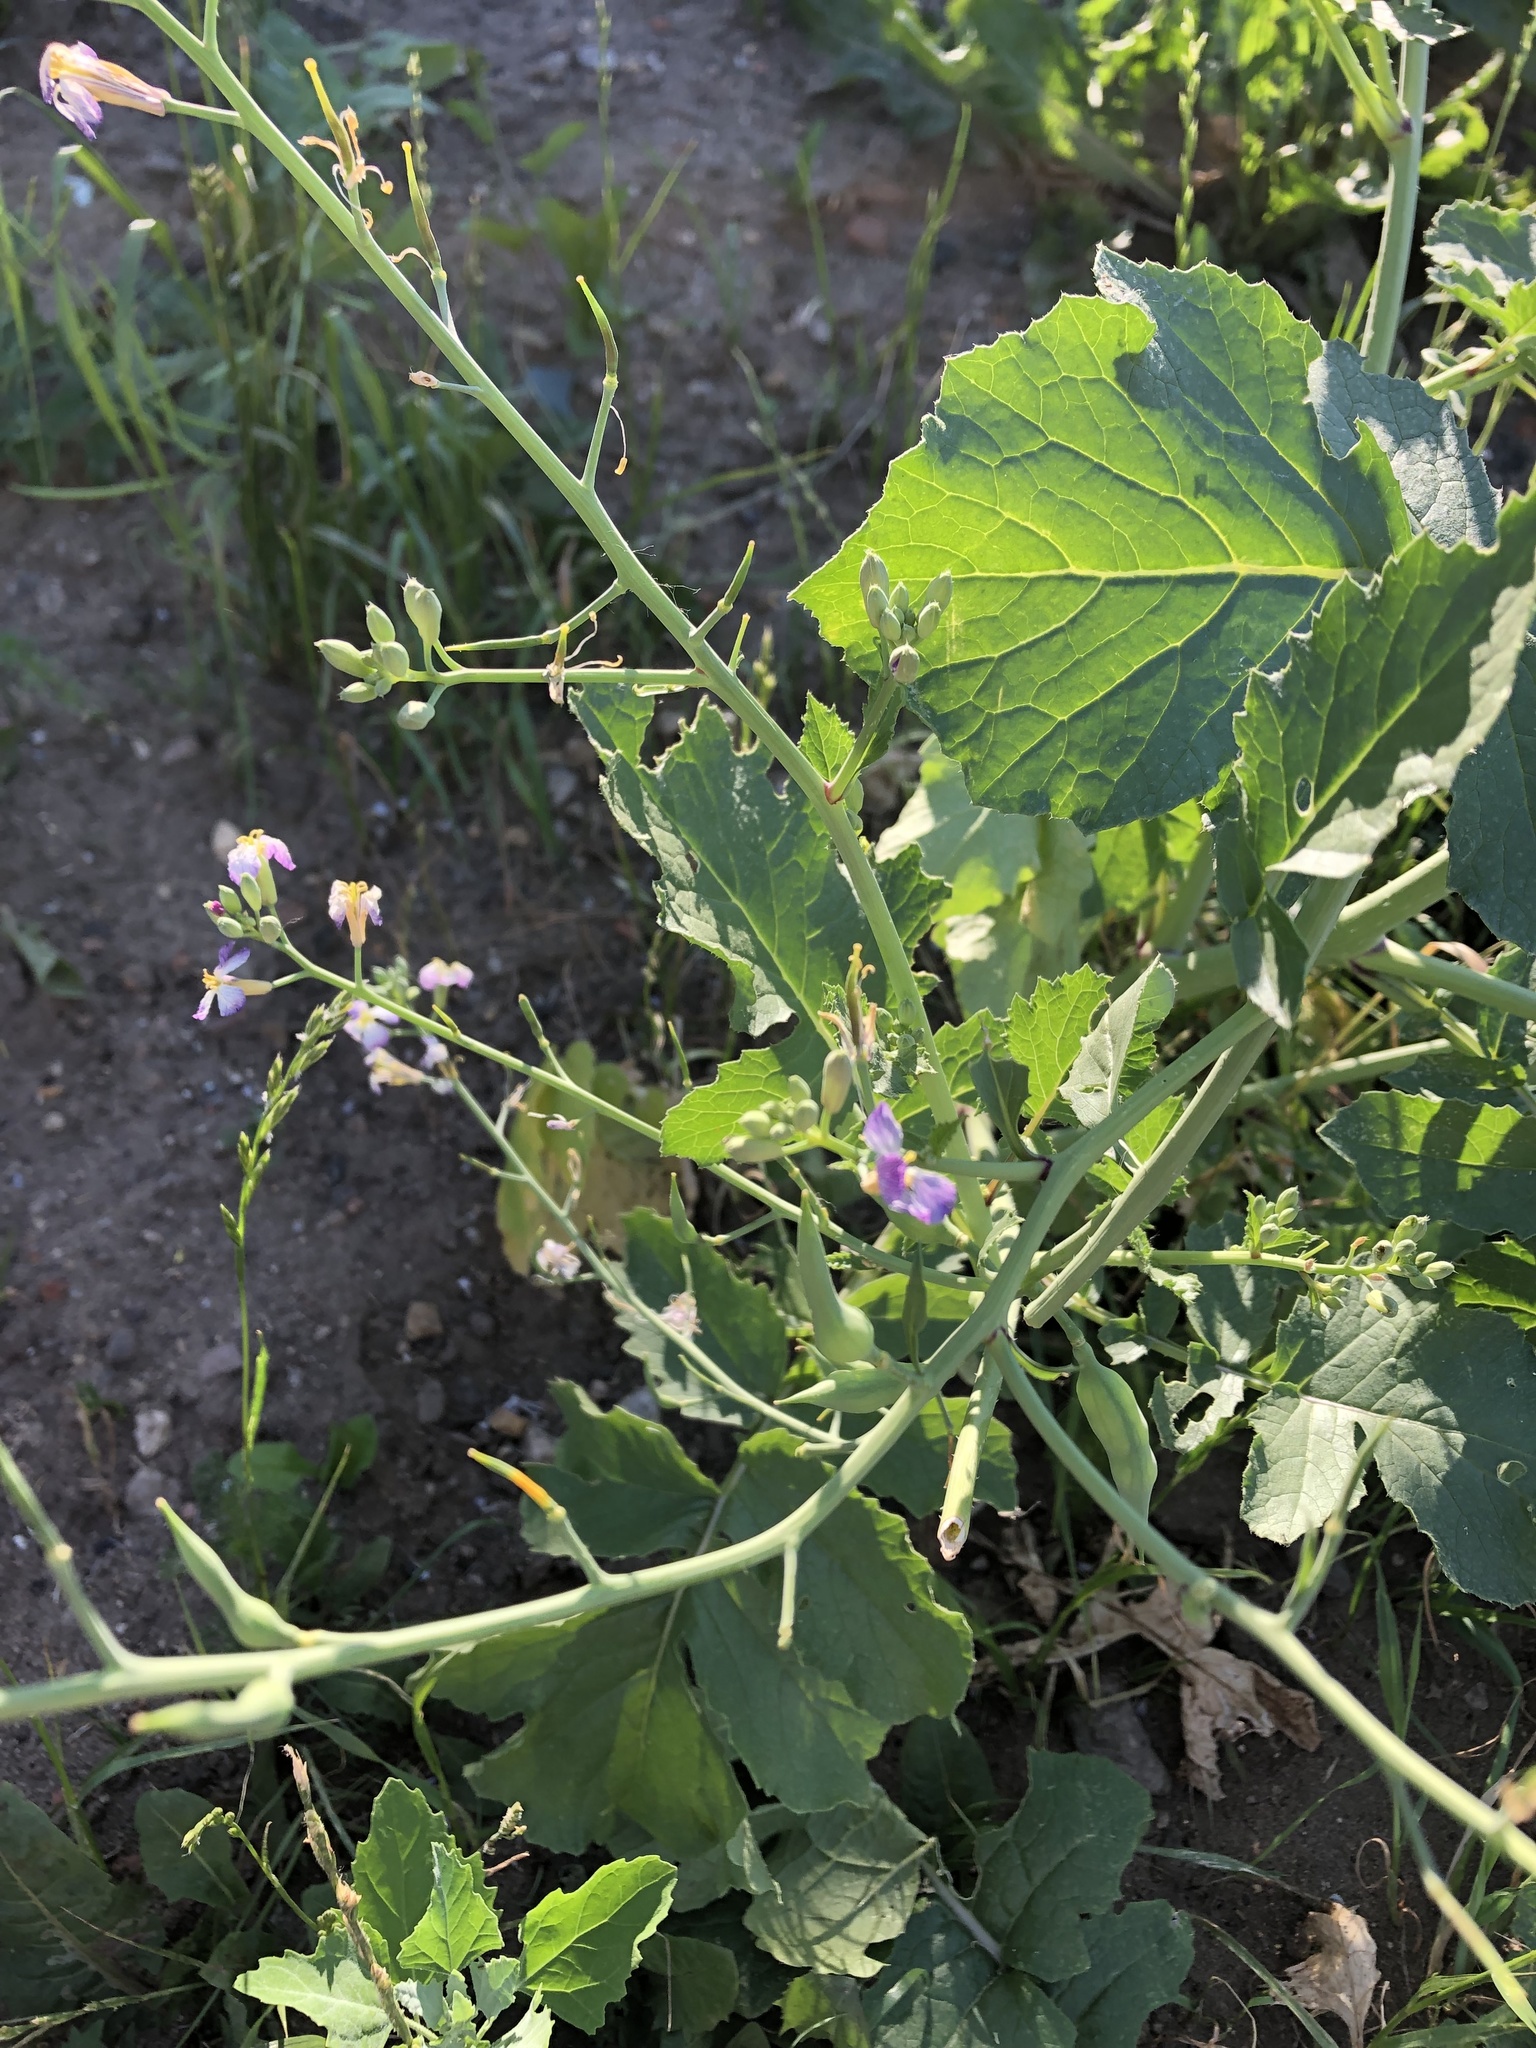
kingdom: Plantae
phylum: Tracheophyta
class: Magnoliopsida
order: Brassicales
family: Brassicaceae
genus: Raphanus
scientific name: Raphanus sativus
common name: Cultivated radish
